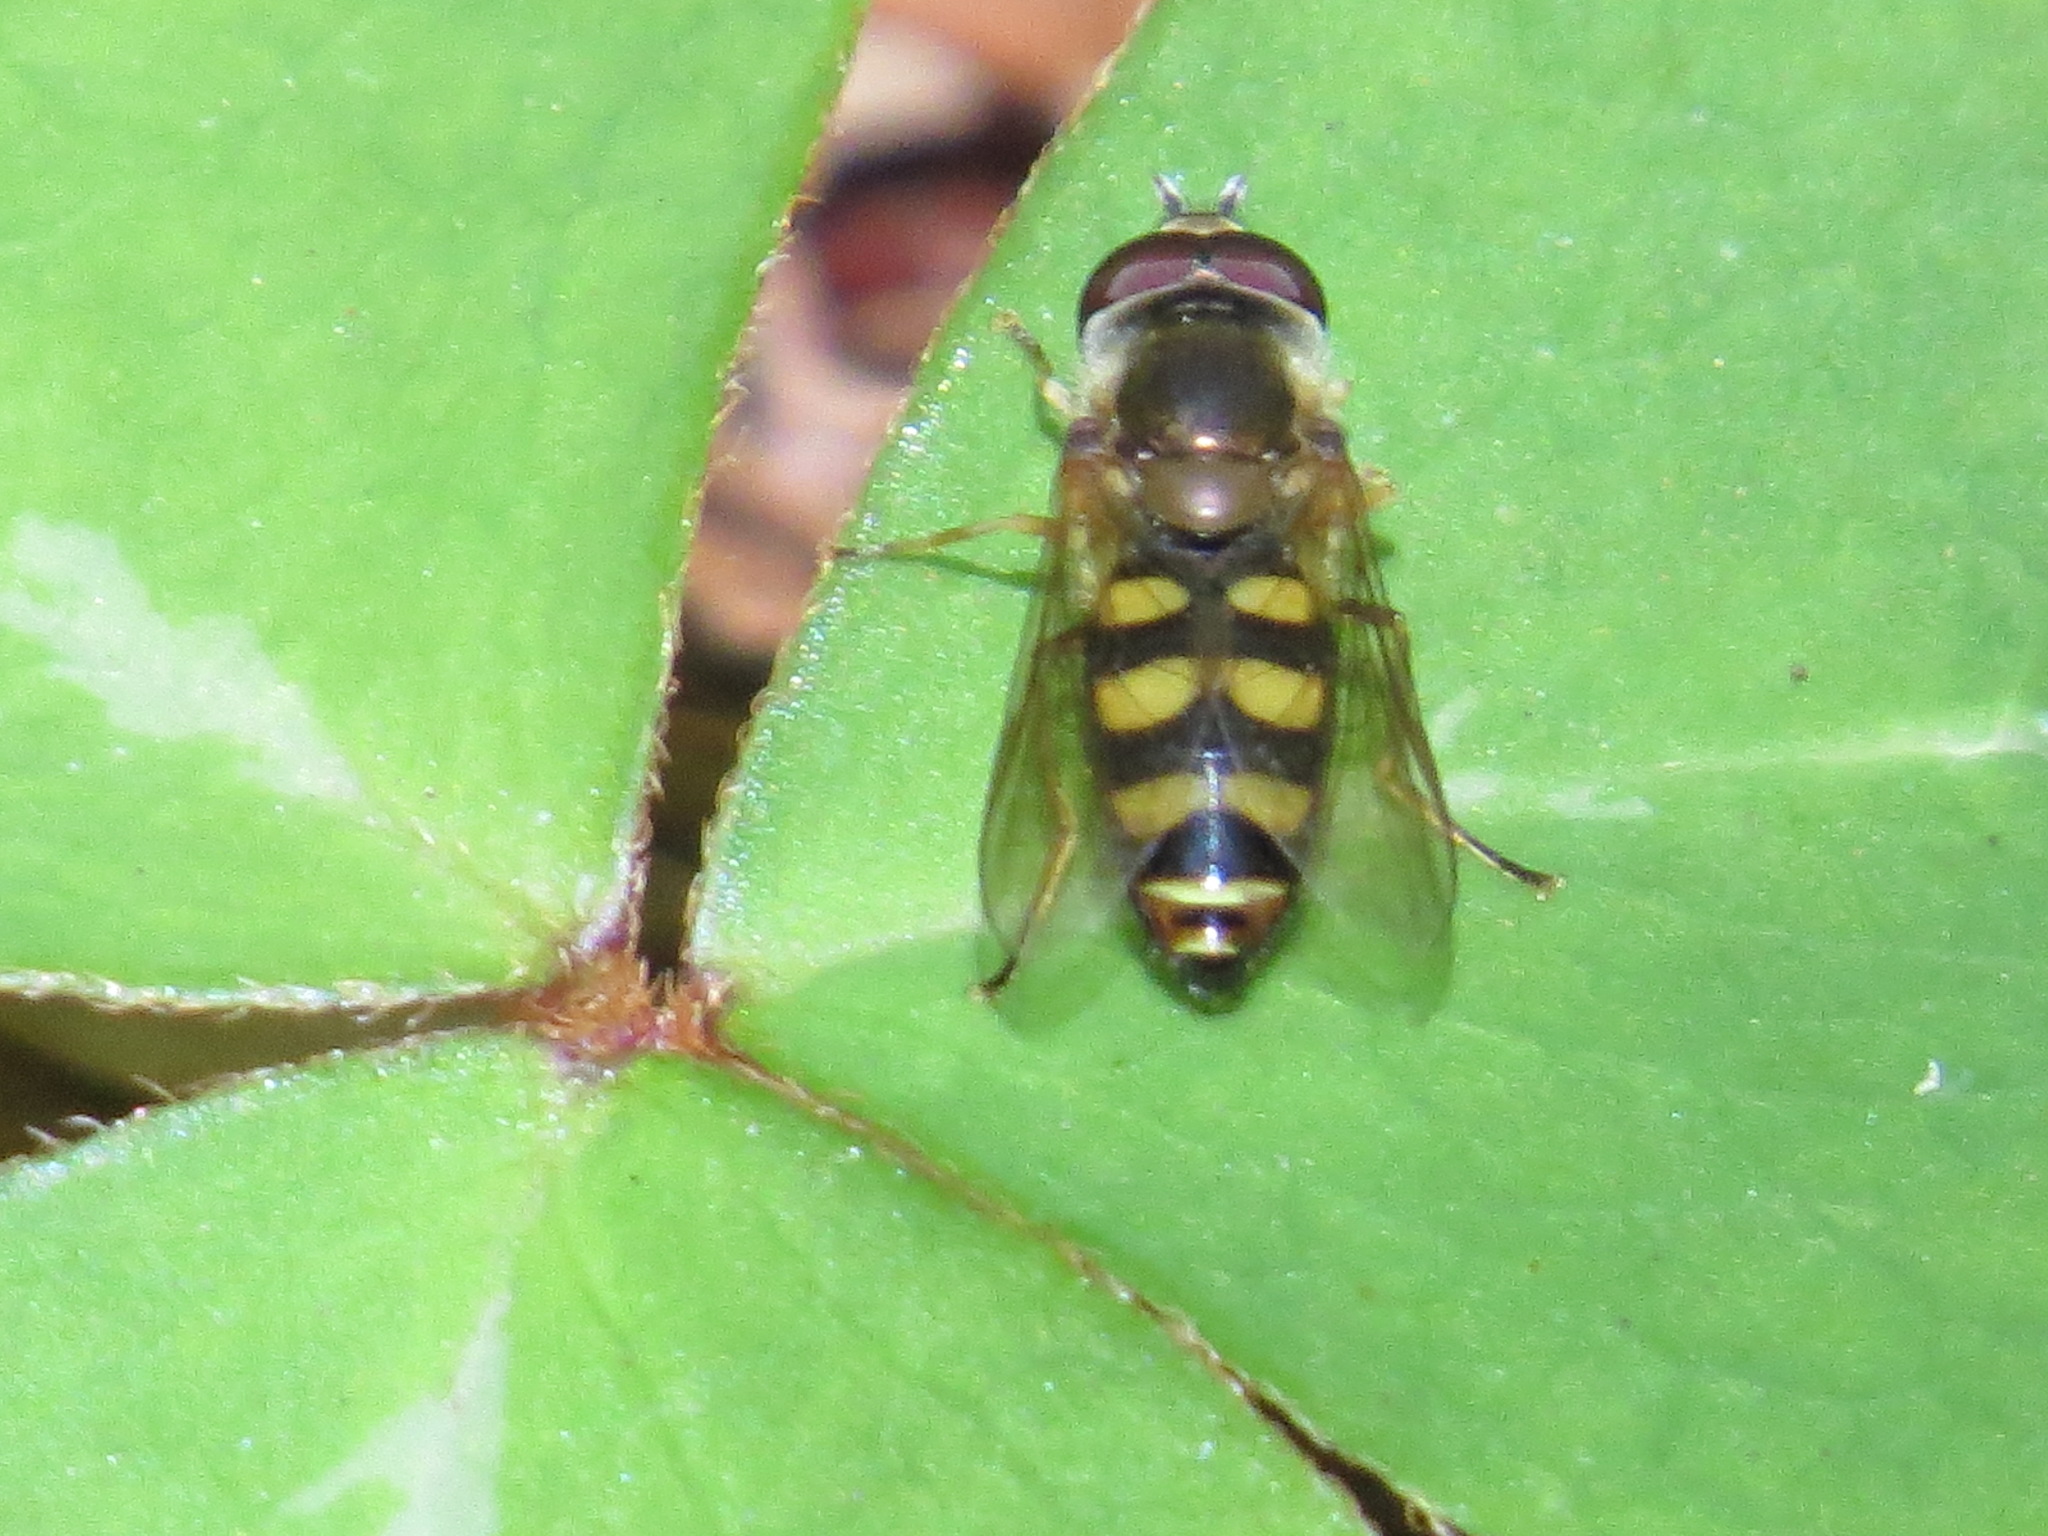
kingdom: Animalia
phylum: Arthropoda
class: Insecta
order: Diptera
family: Syrphidae
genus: Eupeodes
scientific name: Eupeodes fumipennis
